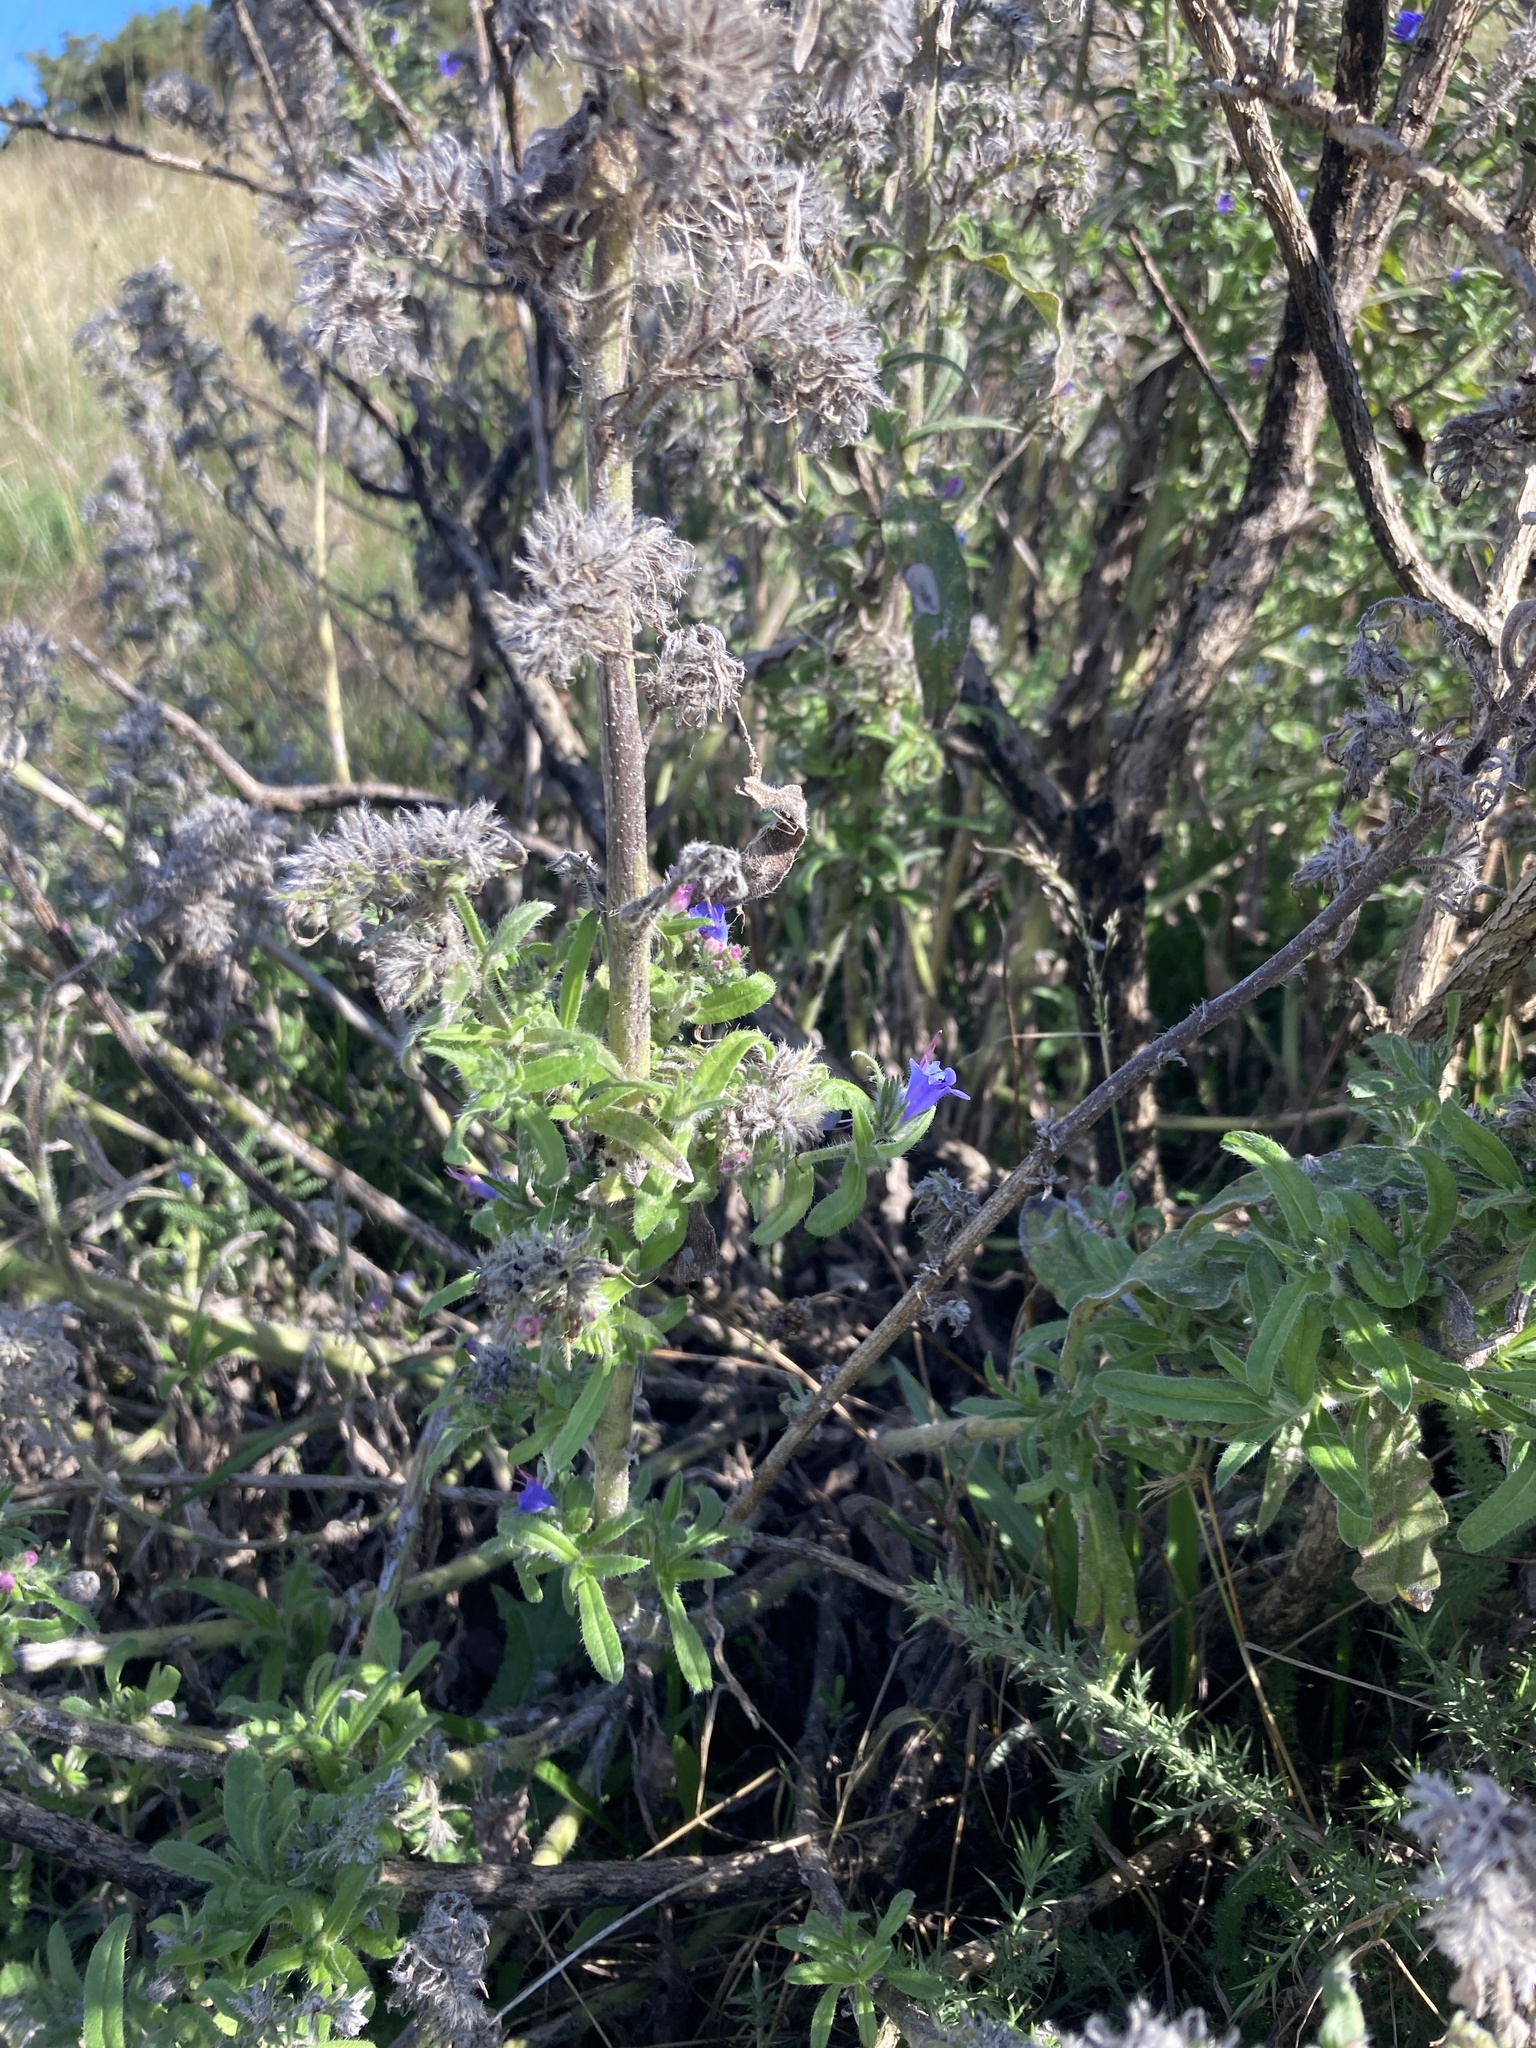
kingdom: Plantae
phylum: Tracheophyta
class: Magnoliopsida
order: Boraginales
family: Boraginaceae
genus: Echium
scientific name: Echium vulgare
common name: Common viper's bugloss
